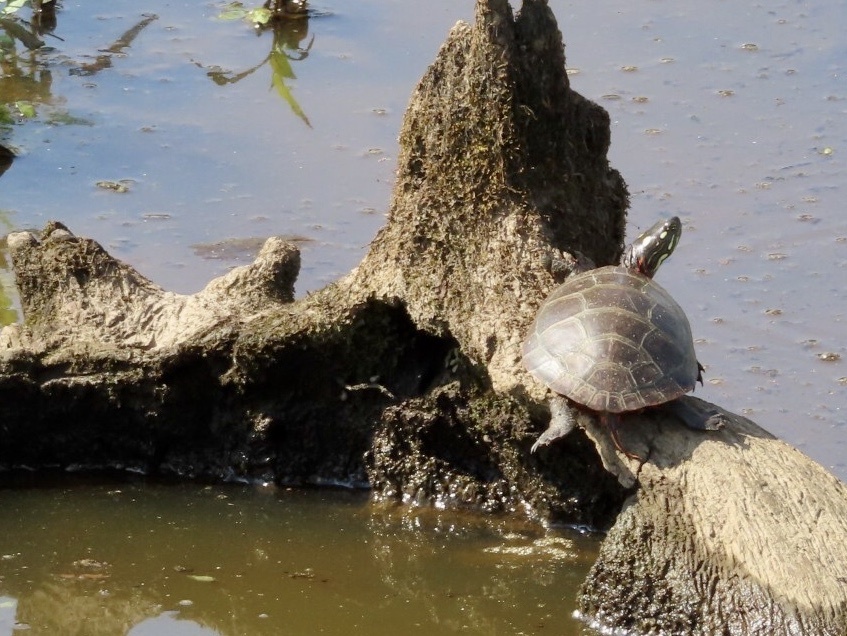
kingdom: Animalia
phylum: Chordata
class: Testudines
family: Emydidae
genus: Chrysemys
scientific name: Chrysemys picta
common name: Painted turtle
